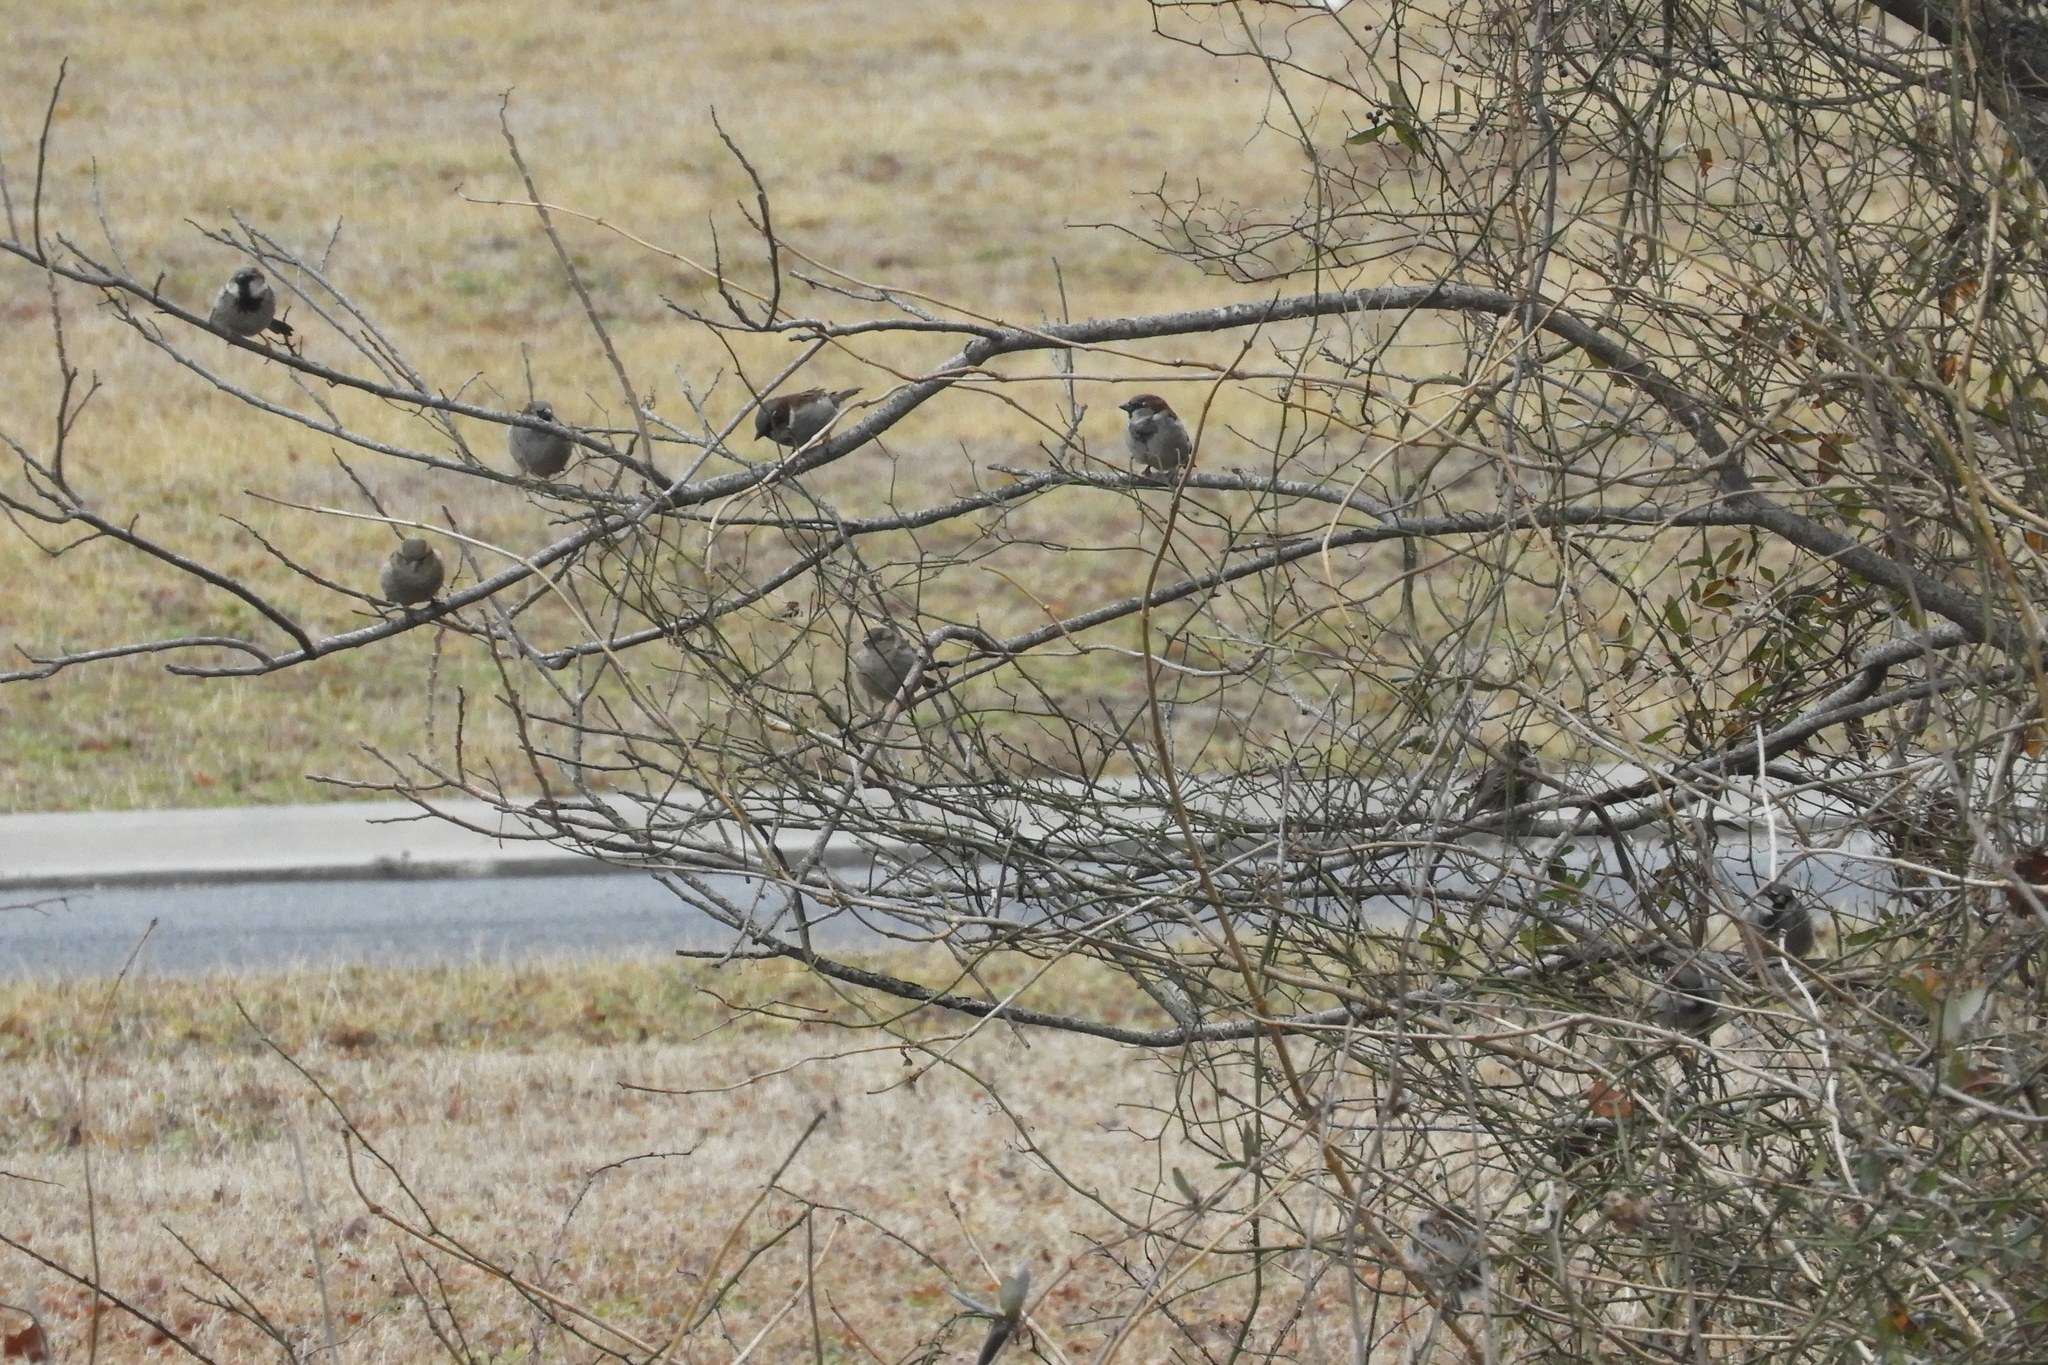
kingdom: Animalia
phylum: Chordata
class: Aves
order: Passeriformes
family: Passeridae
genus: Passer
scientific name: Passer domesticus
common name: House sparrow
